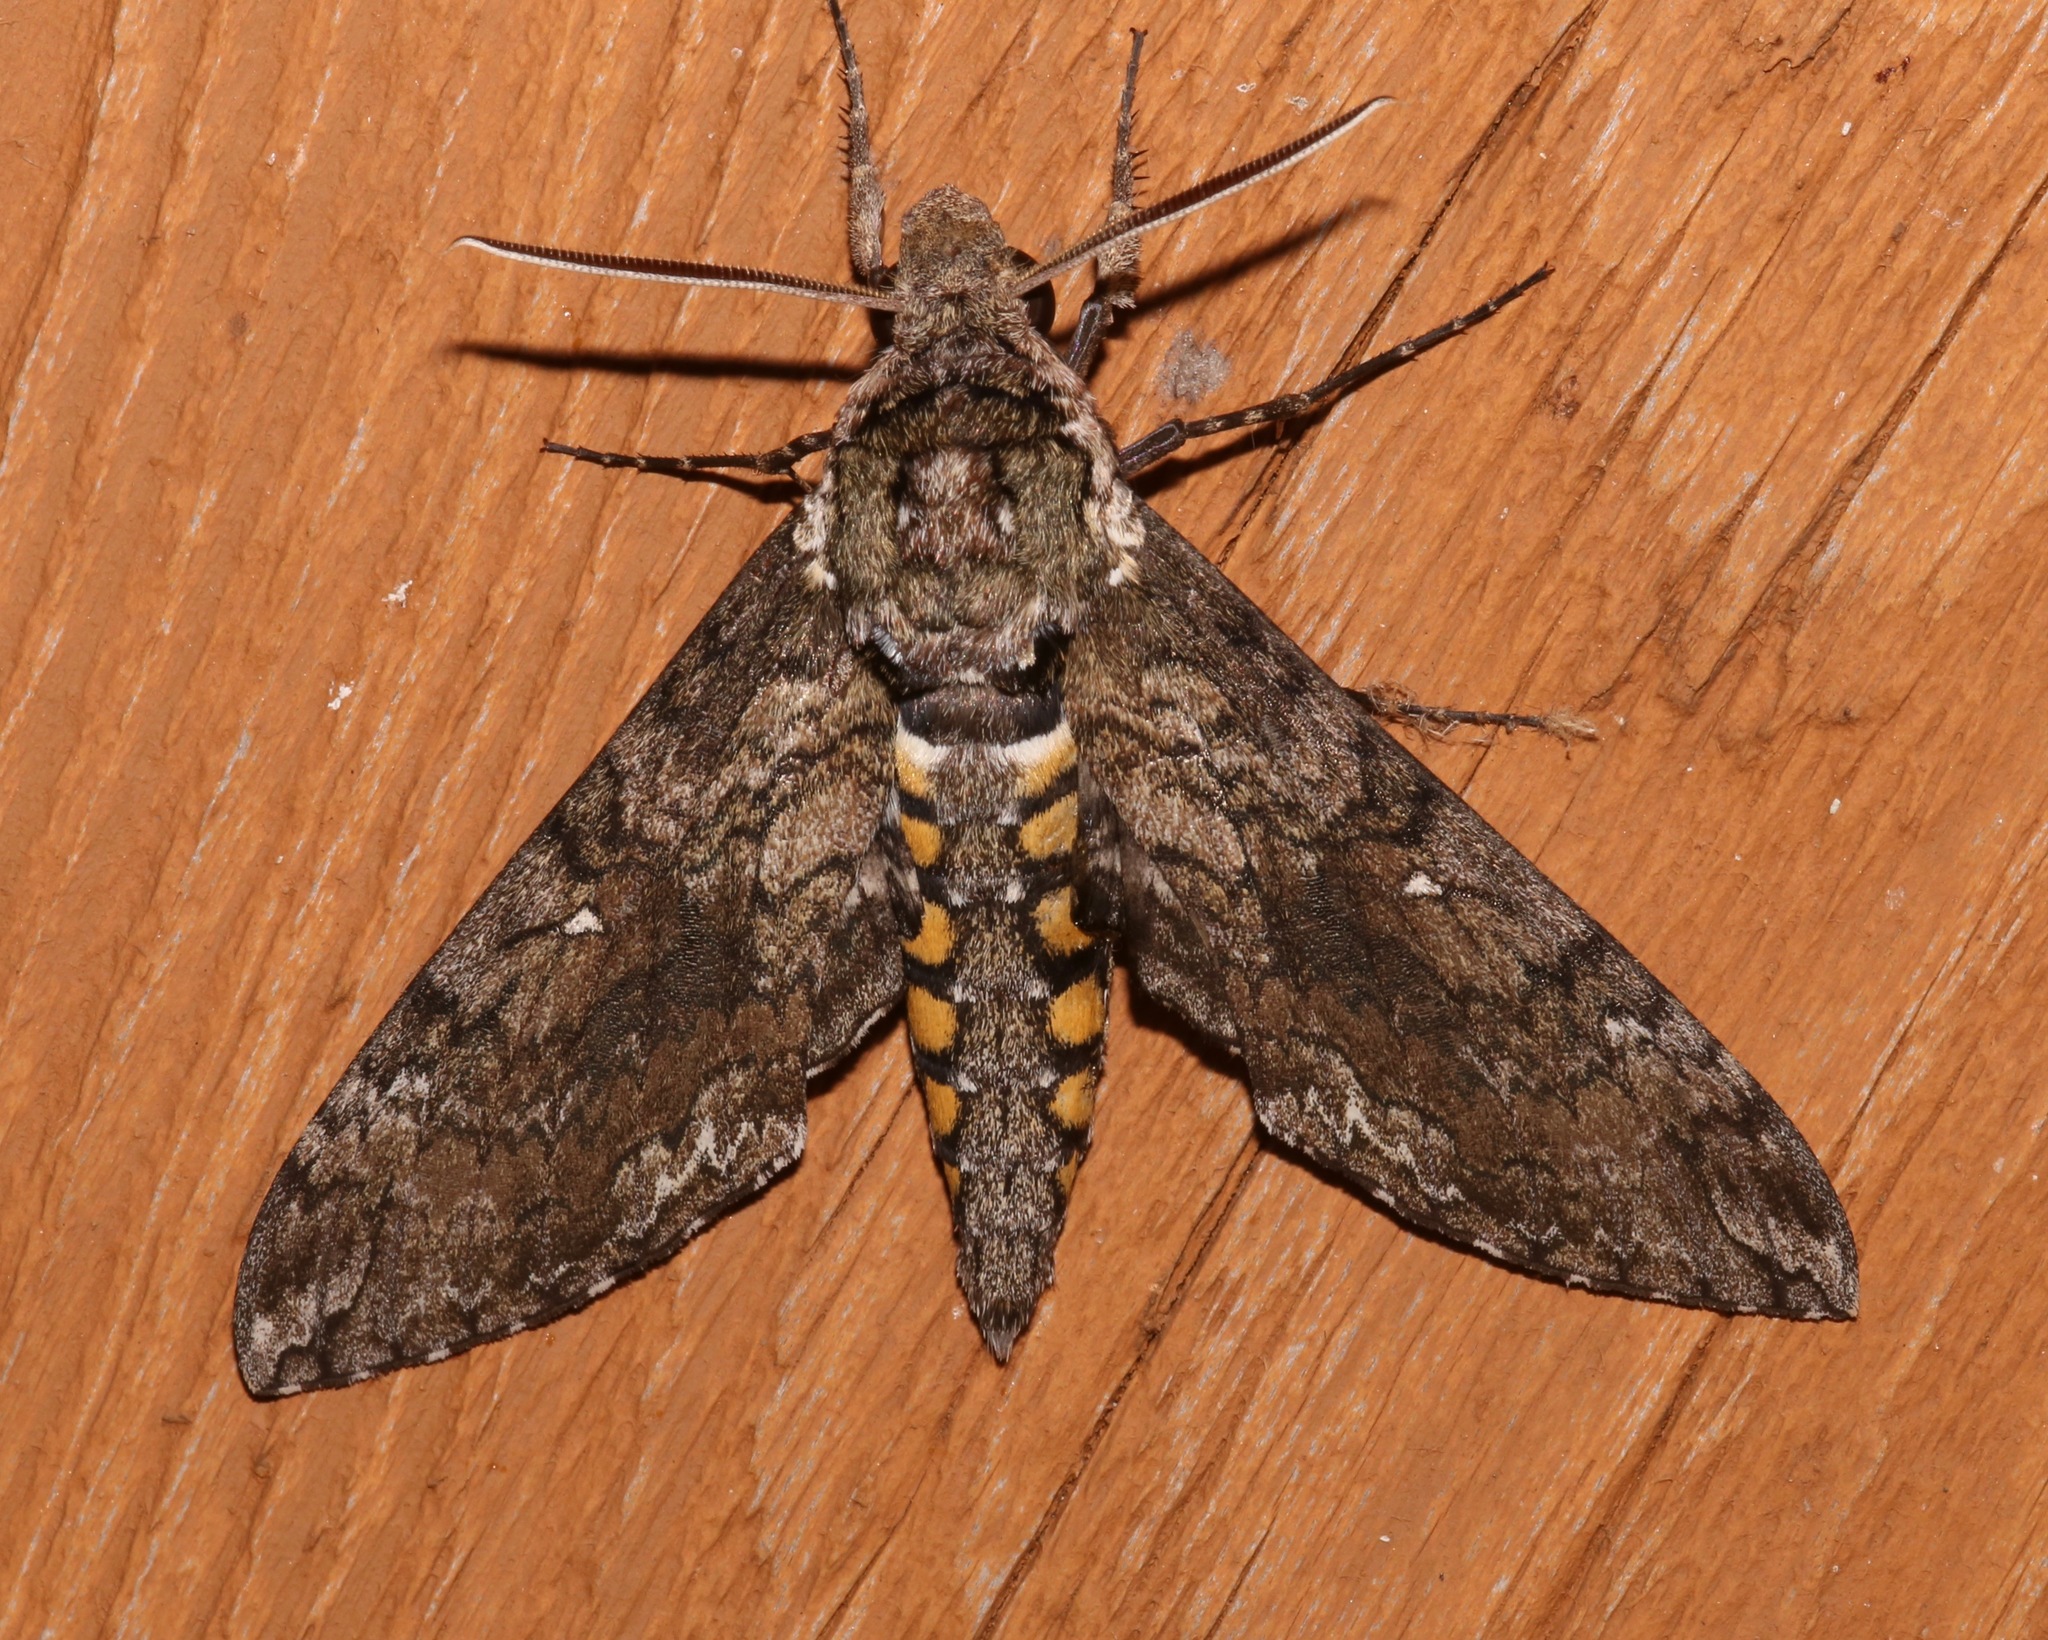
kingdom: Animalia
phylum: Arthropoda
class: Insecta
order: Lepidoptera
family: Sphingidae
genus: Manduca
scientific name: Manduca sexta
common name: Carolina sphinx
